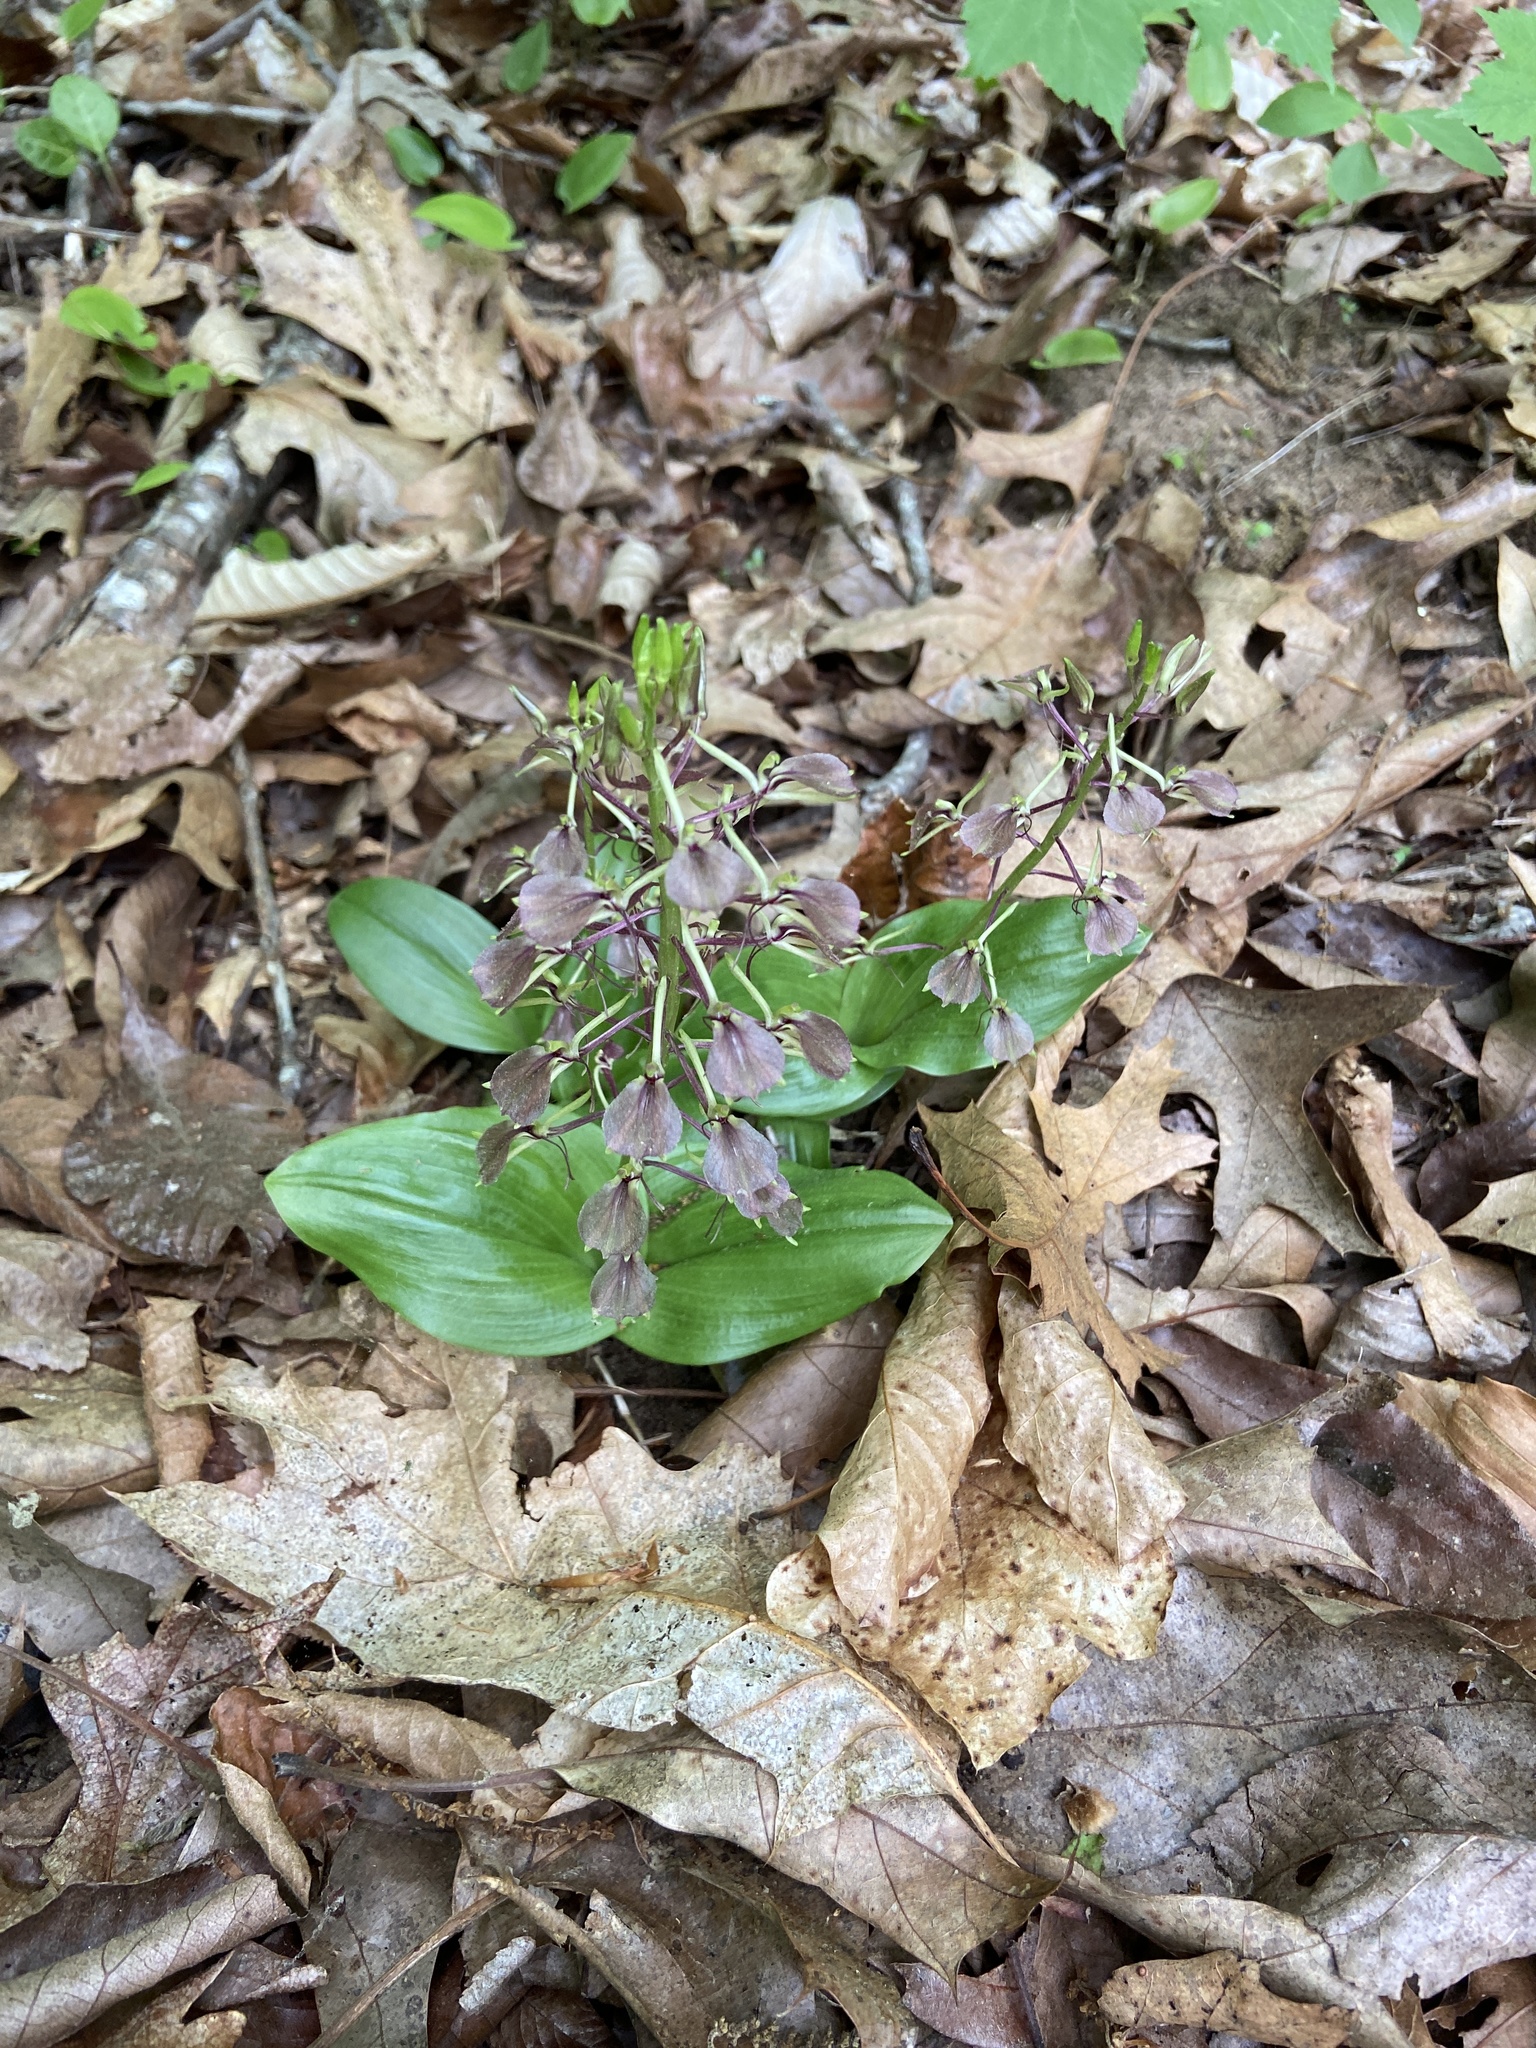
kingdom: Plantae
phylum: Tracheophyta
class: Liliopsida
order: Asparagales
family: Orchidaceae
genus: Liparis
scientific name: Liparis liliifolia
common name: Brown wide-lip orchid
